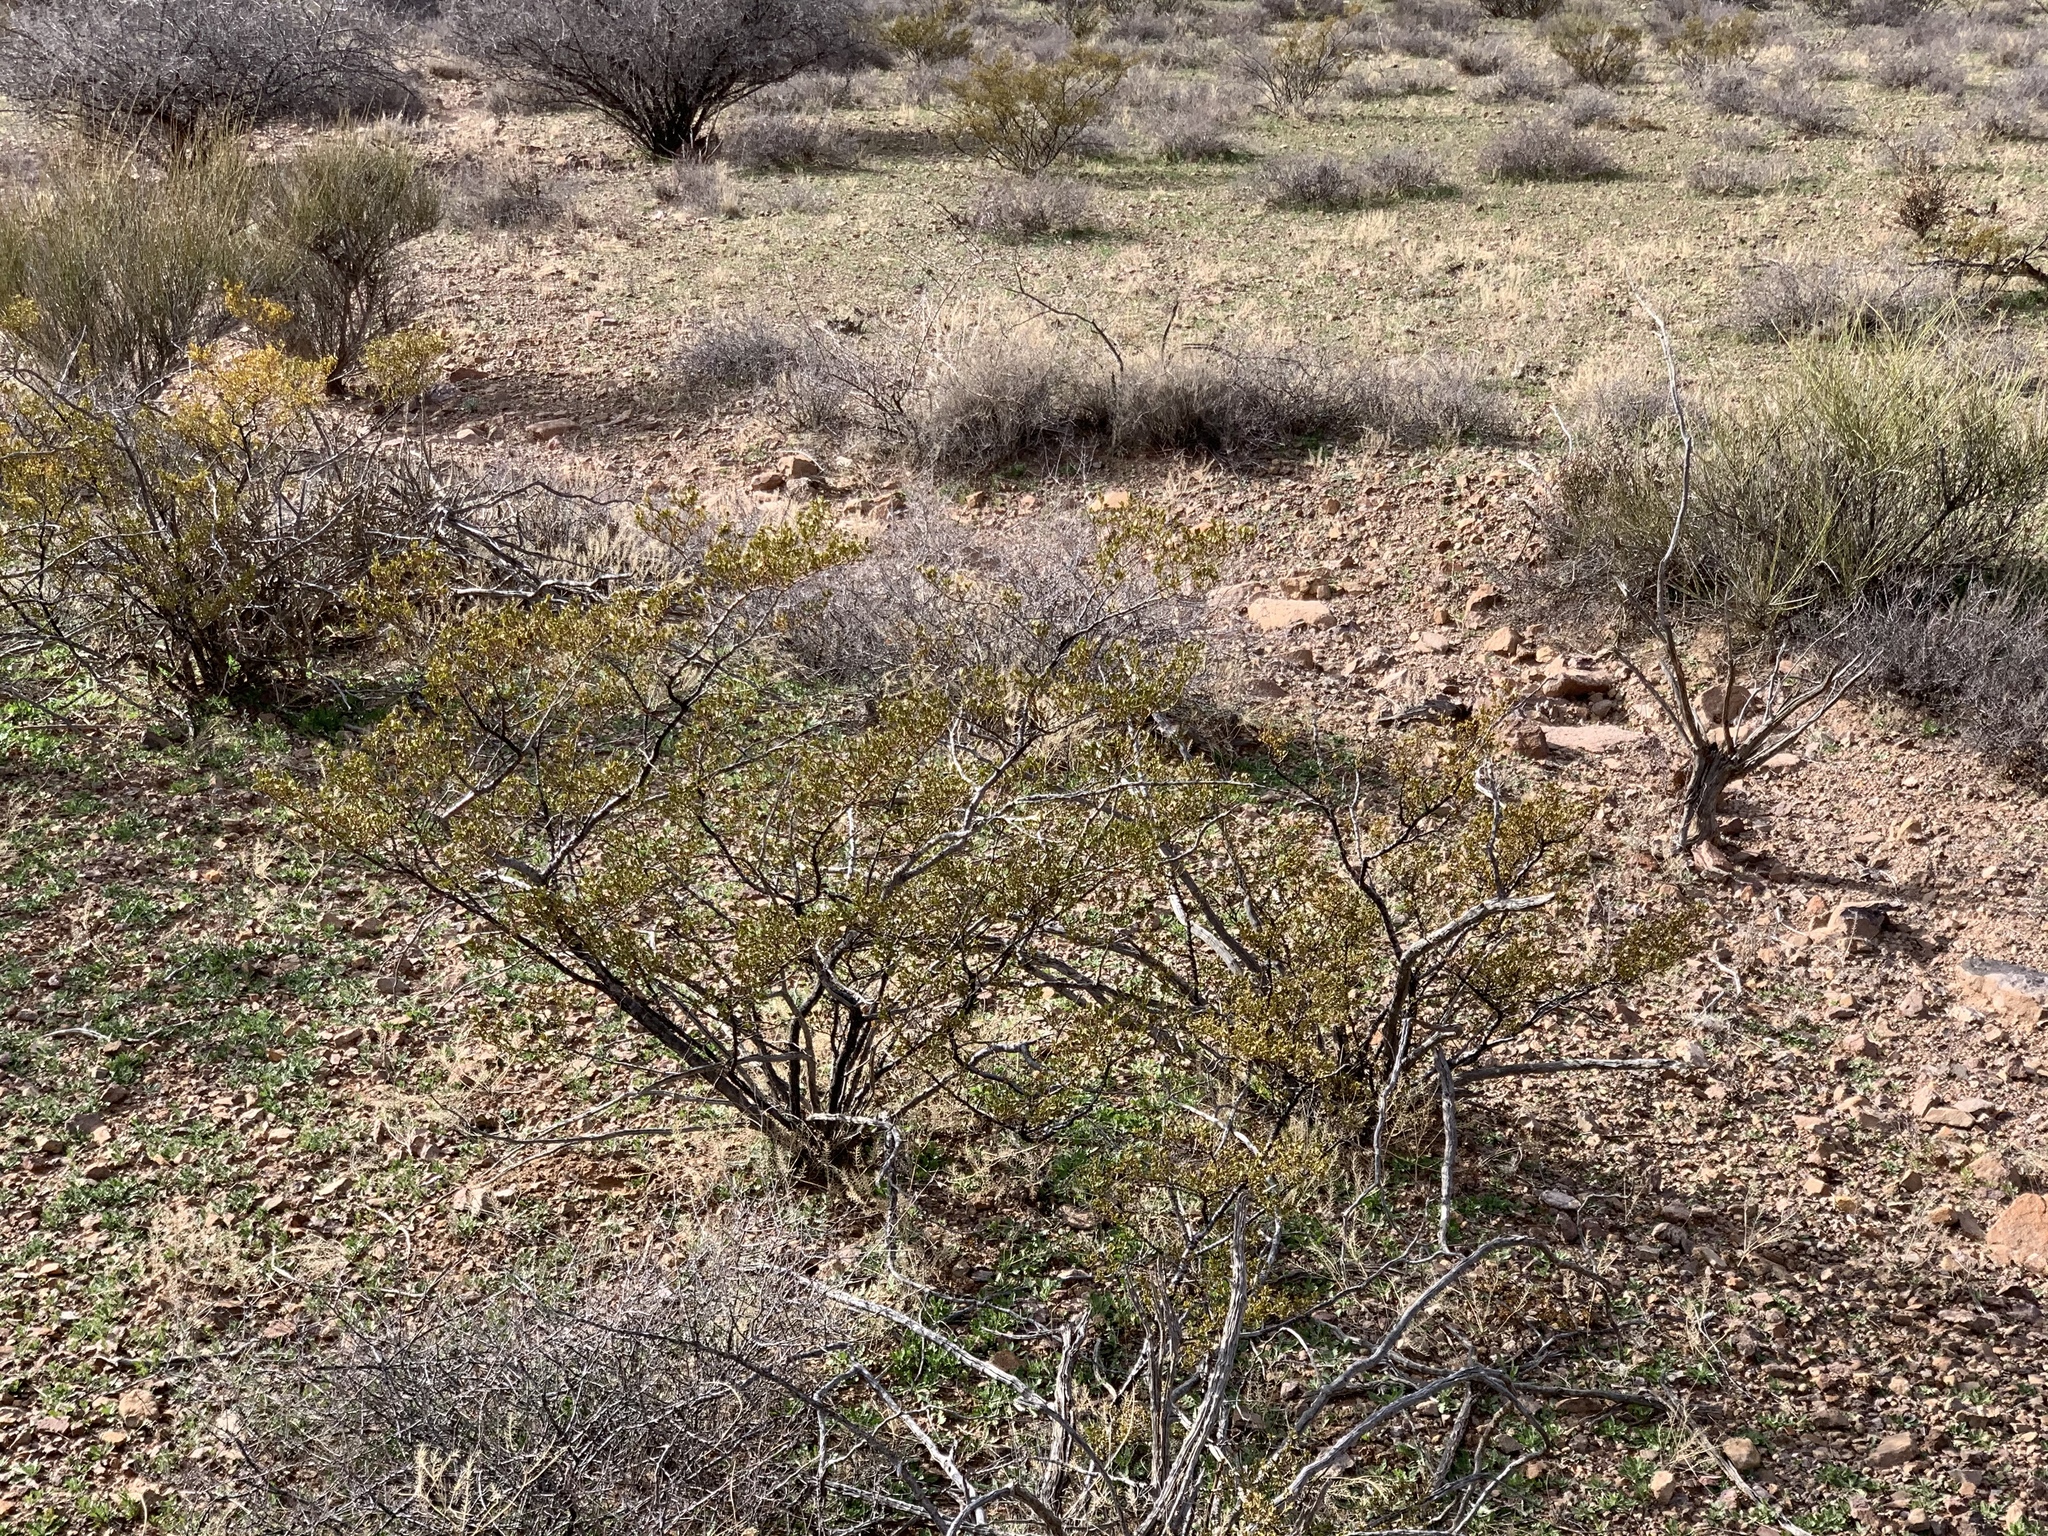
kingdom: Plantae
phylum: Tracheophyta
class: Magnoliopsida
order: Zygophyllales
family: Zygophyllaceae
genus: Larrea
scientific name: Larrea tridentata
